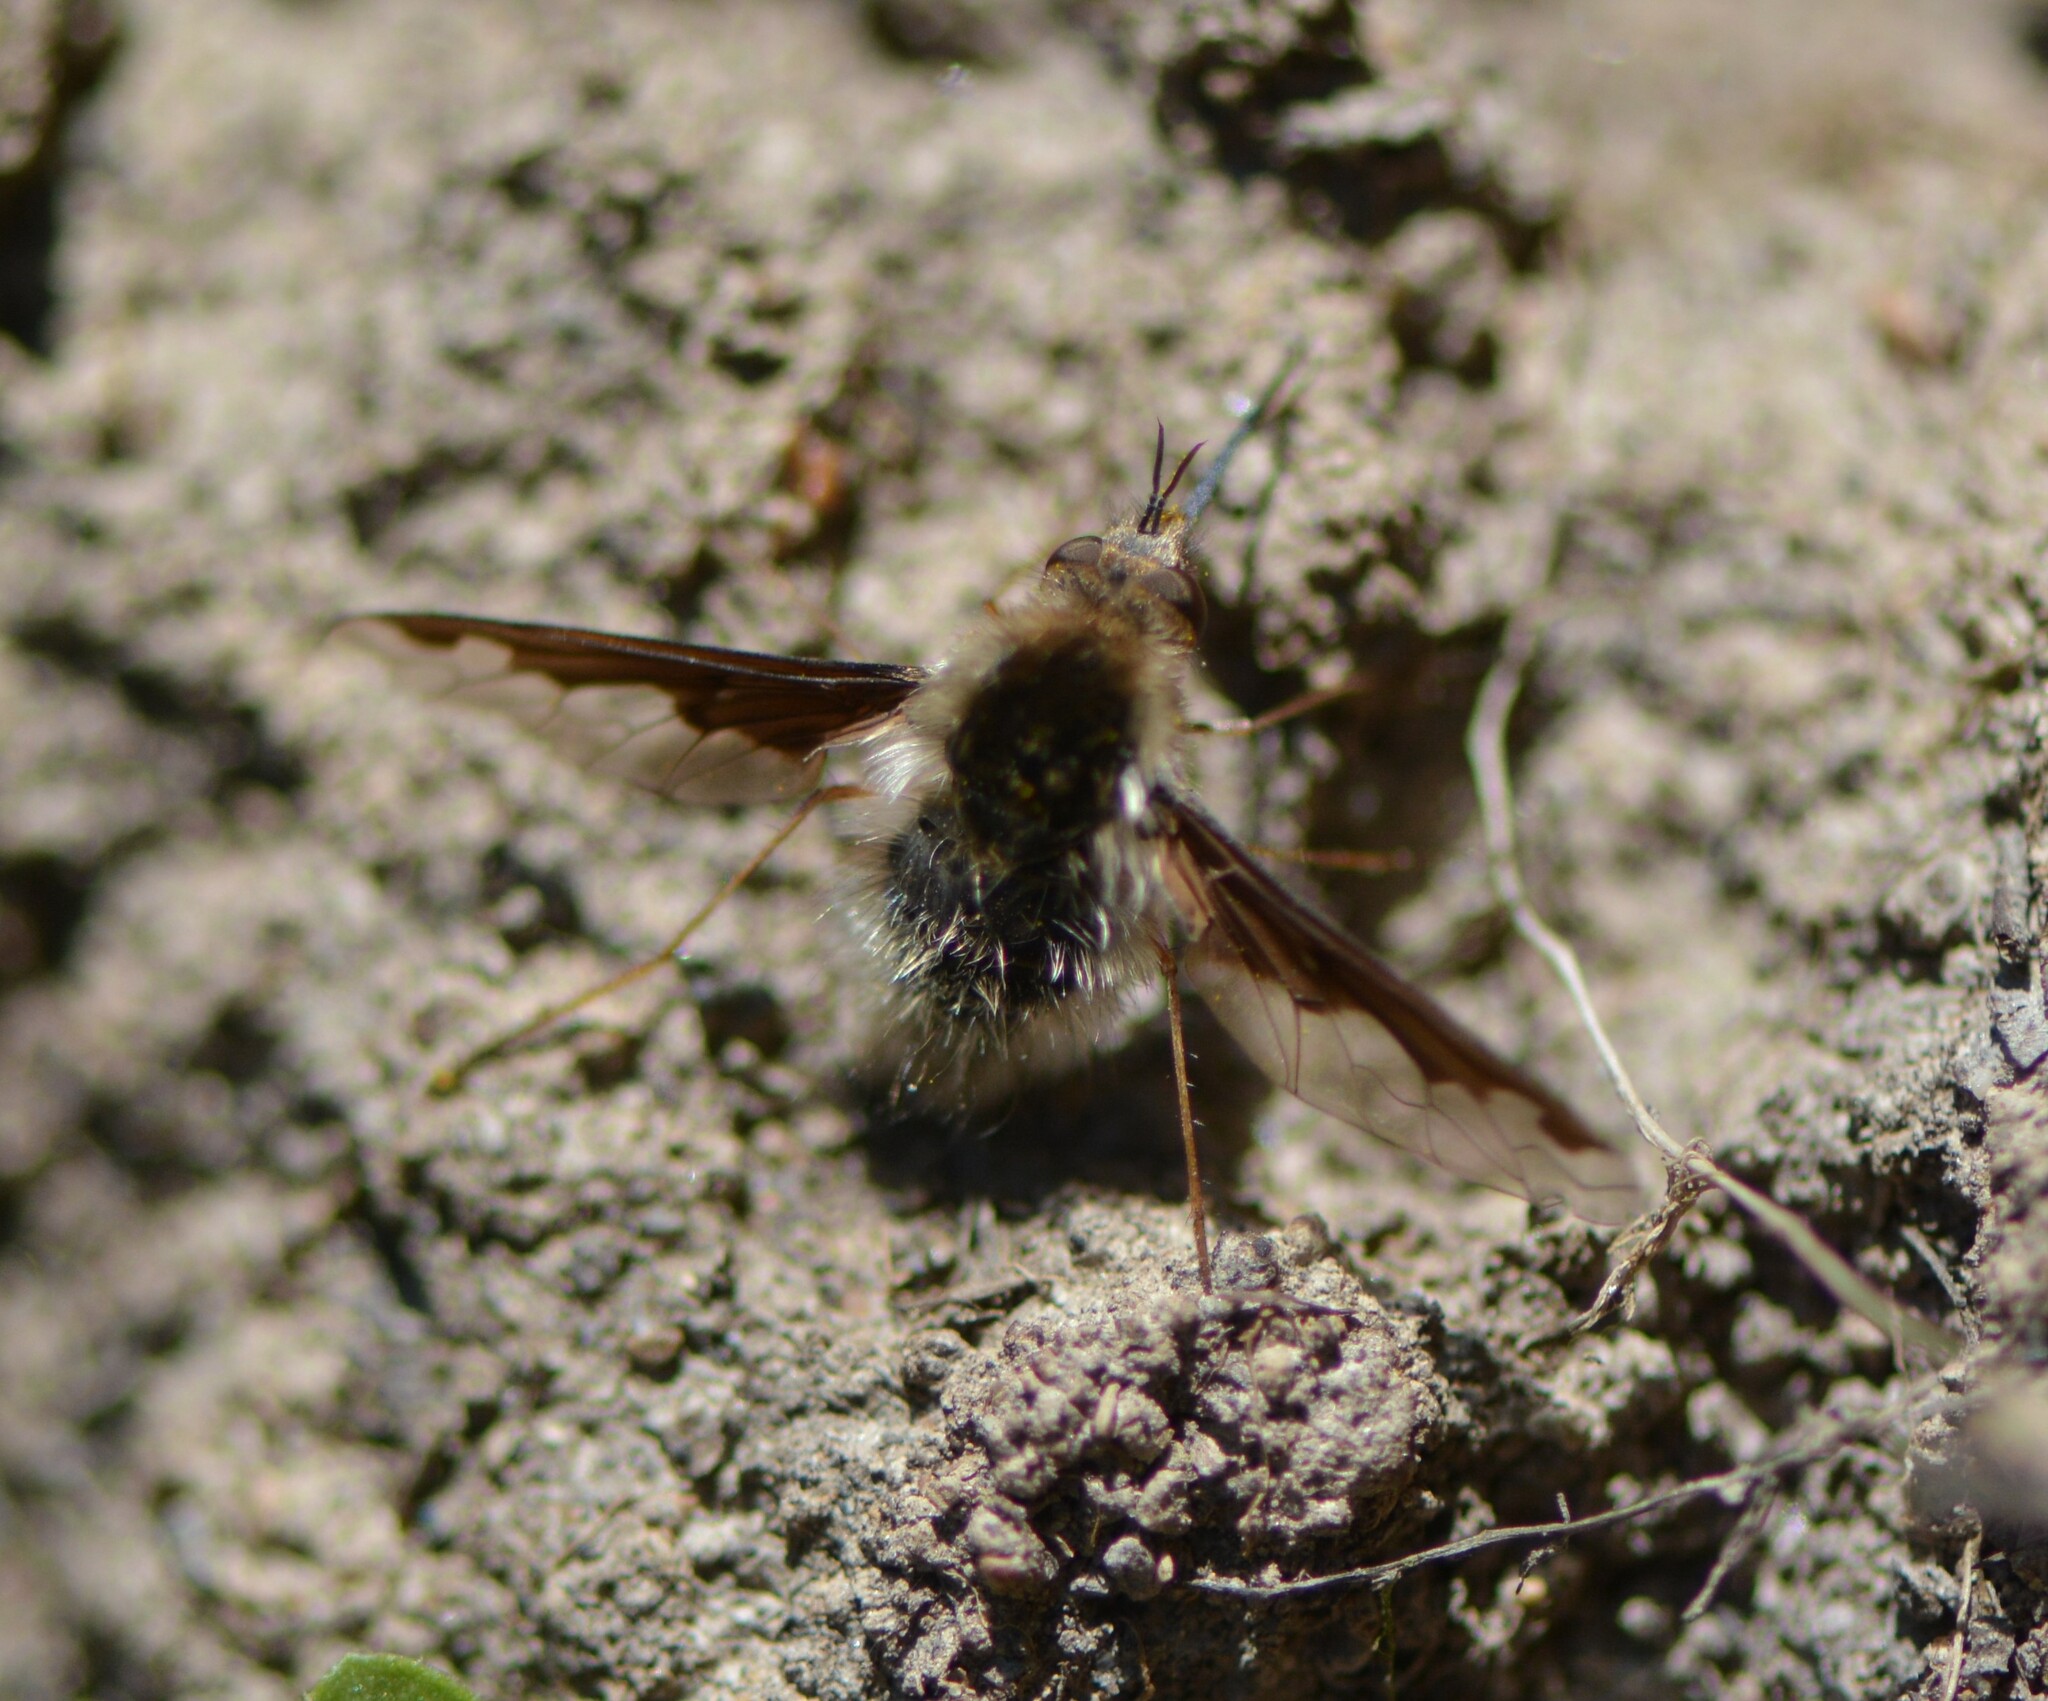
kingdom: Animalia
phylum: Arthropoda
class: Insecta
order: Diptera
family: Bombyliidae
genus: Bombylius
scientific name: Bombylius major
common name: Bee fly
